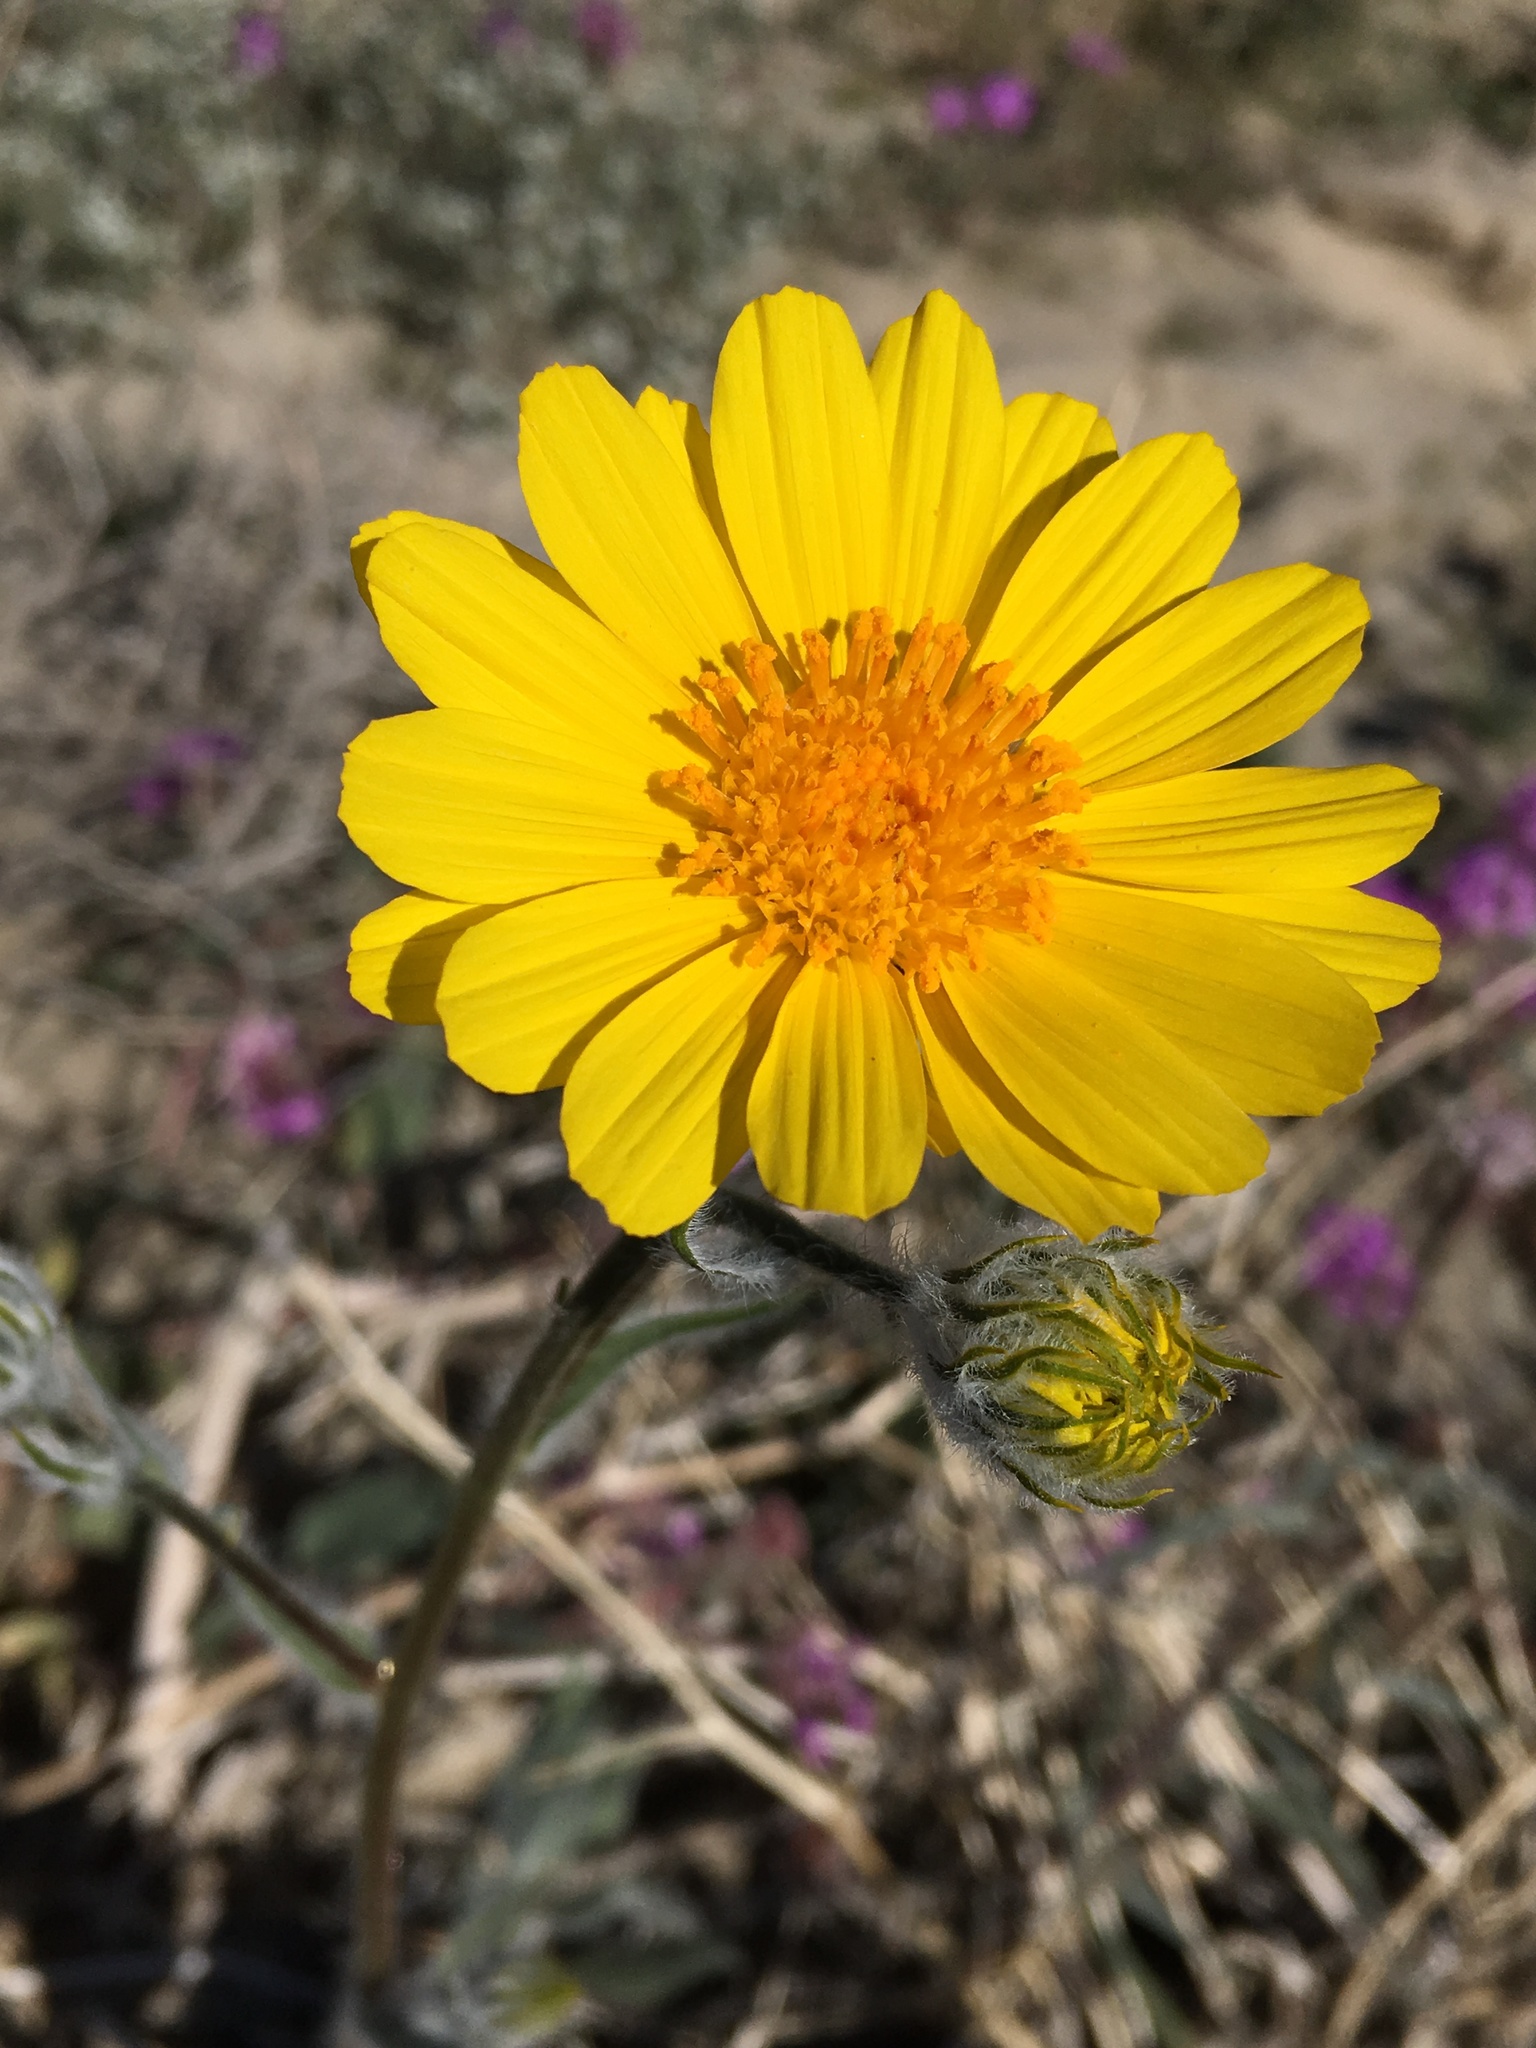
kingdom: Plantae
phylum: Tracheophyta
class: Magnoliopsida
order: Asterales
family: Asteraceae
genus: Geraea
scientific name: Geraea canescens
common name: Desert-gold
